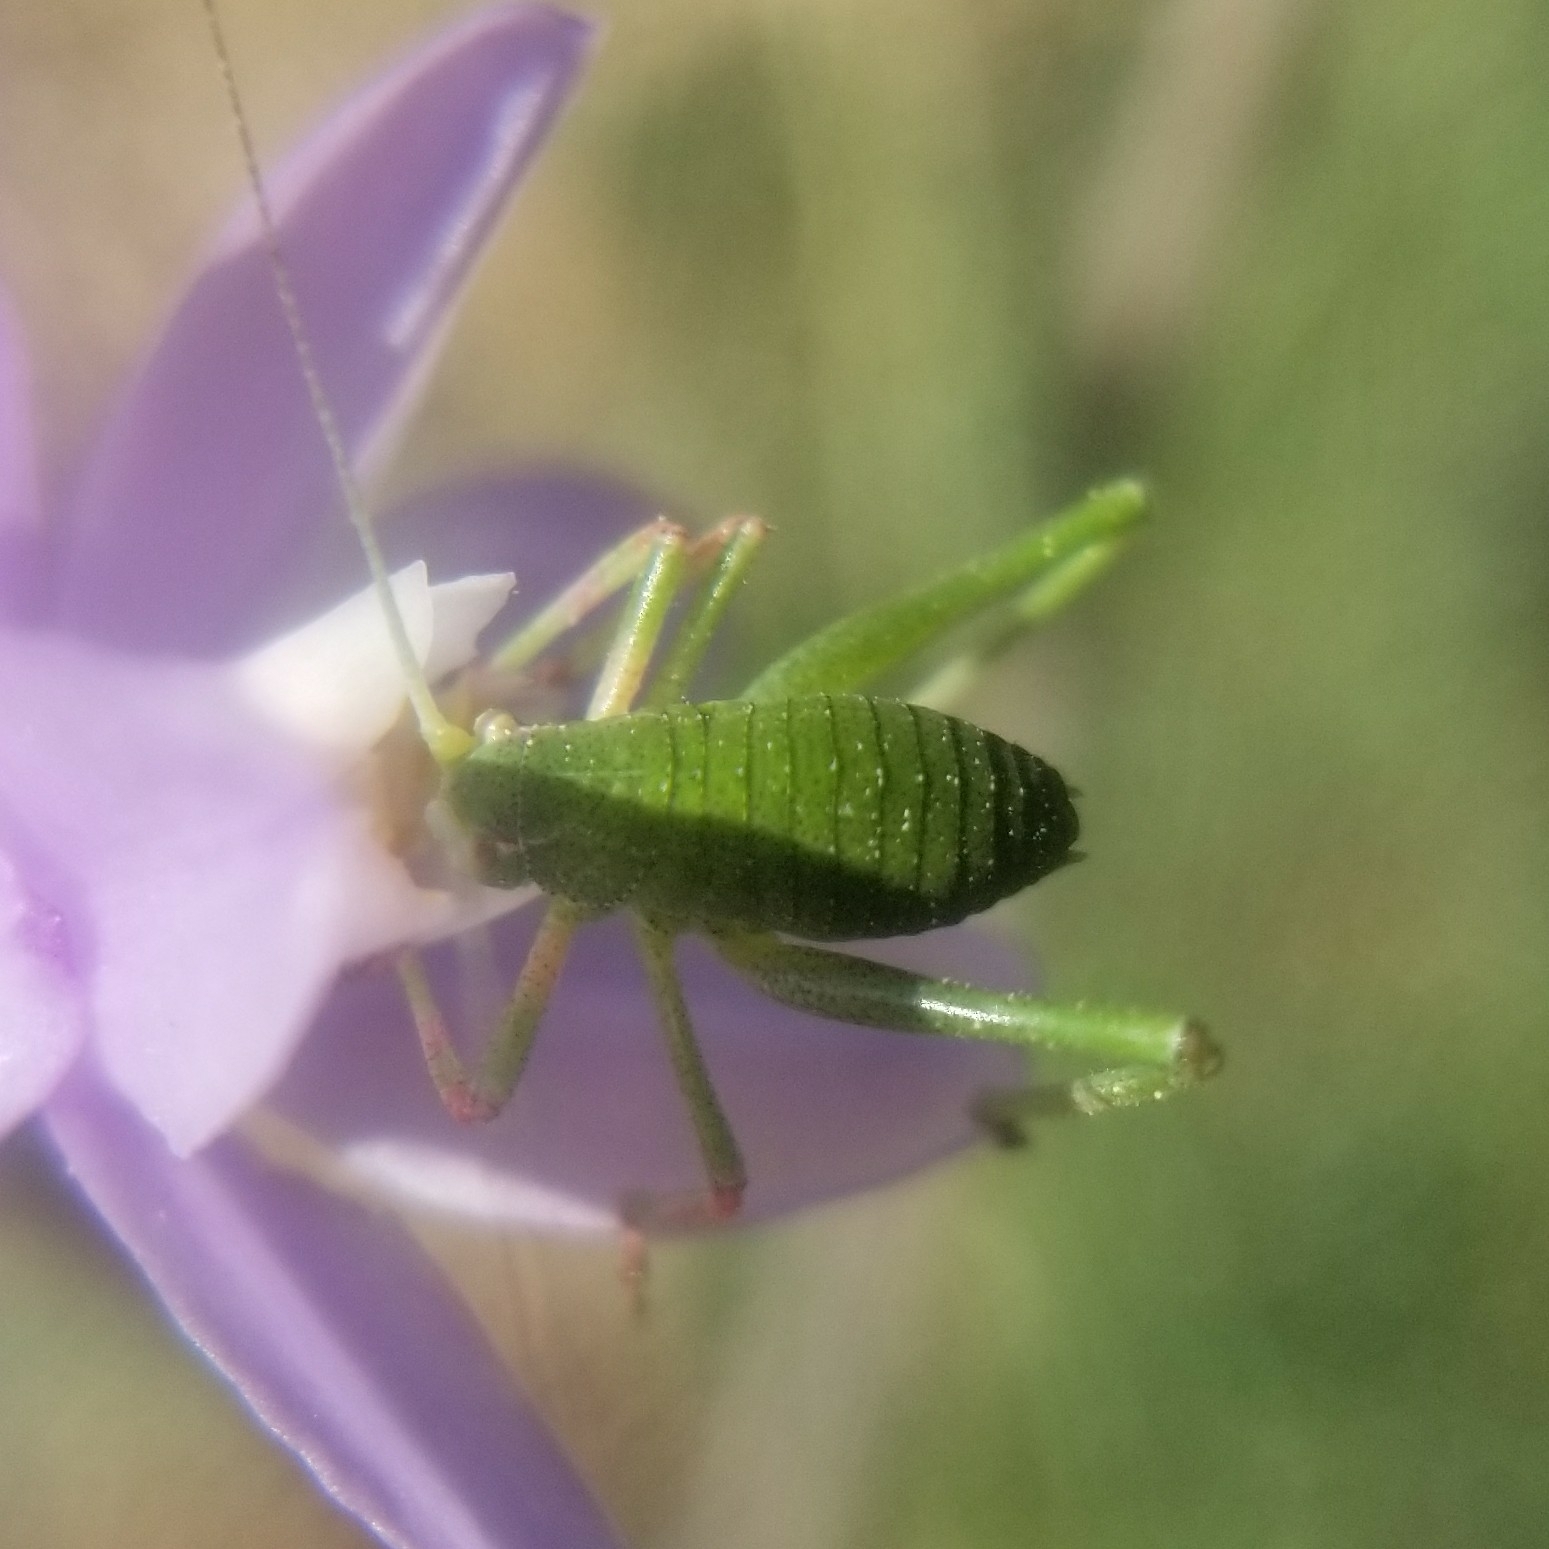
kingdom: Animalia
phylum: Arthropoda
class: Insecta
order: Orthoptera
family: Tettigoniidae
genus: Platylyra
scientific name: Platylyra californica
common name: Chaparral false katydid
